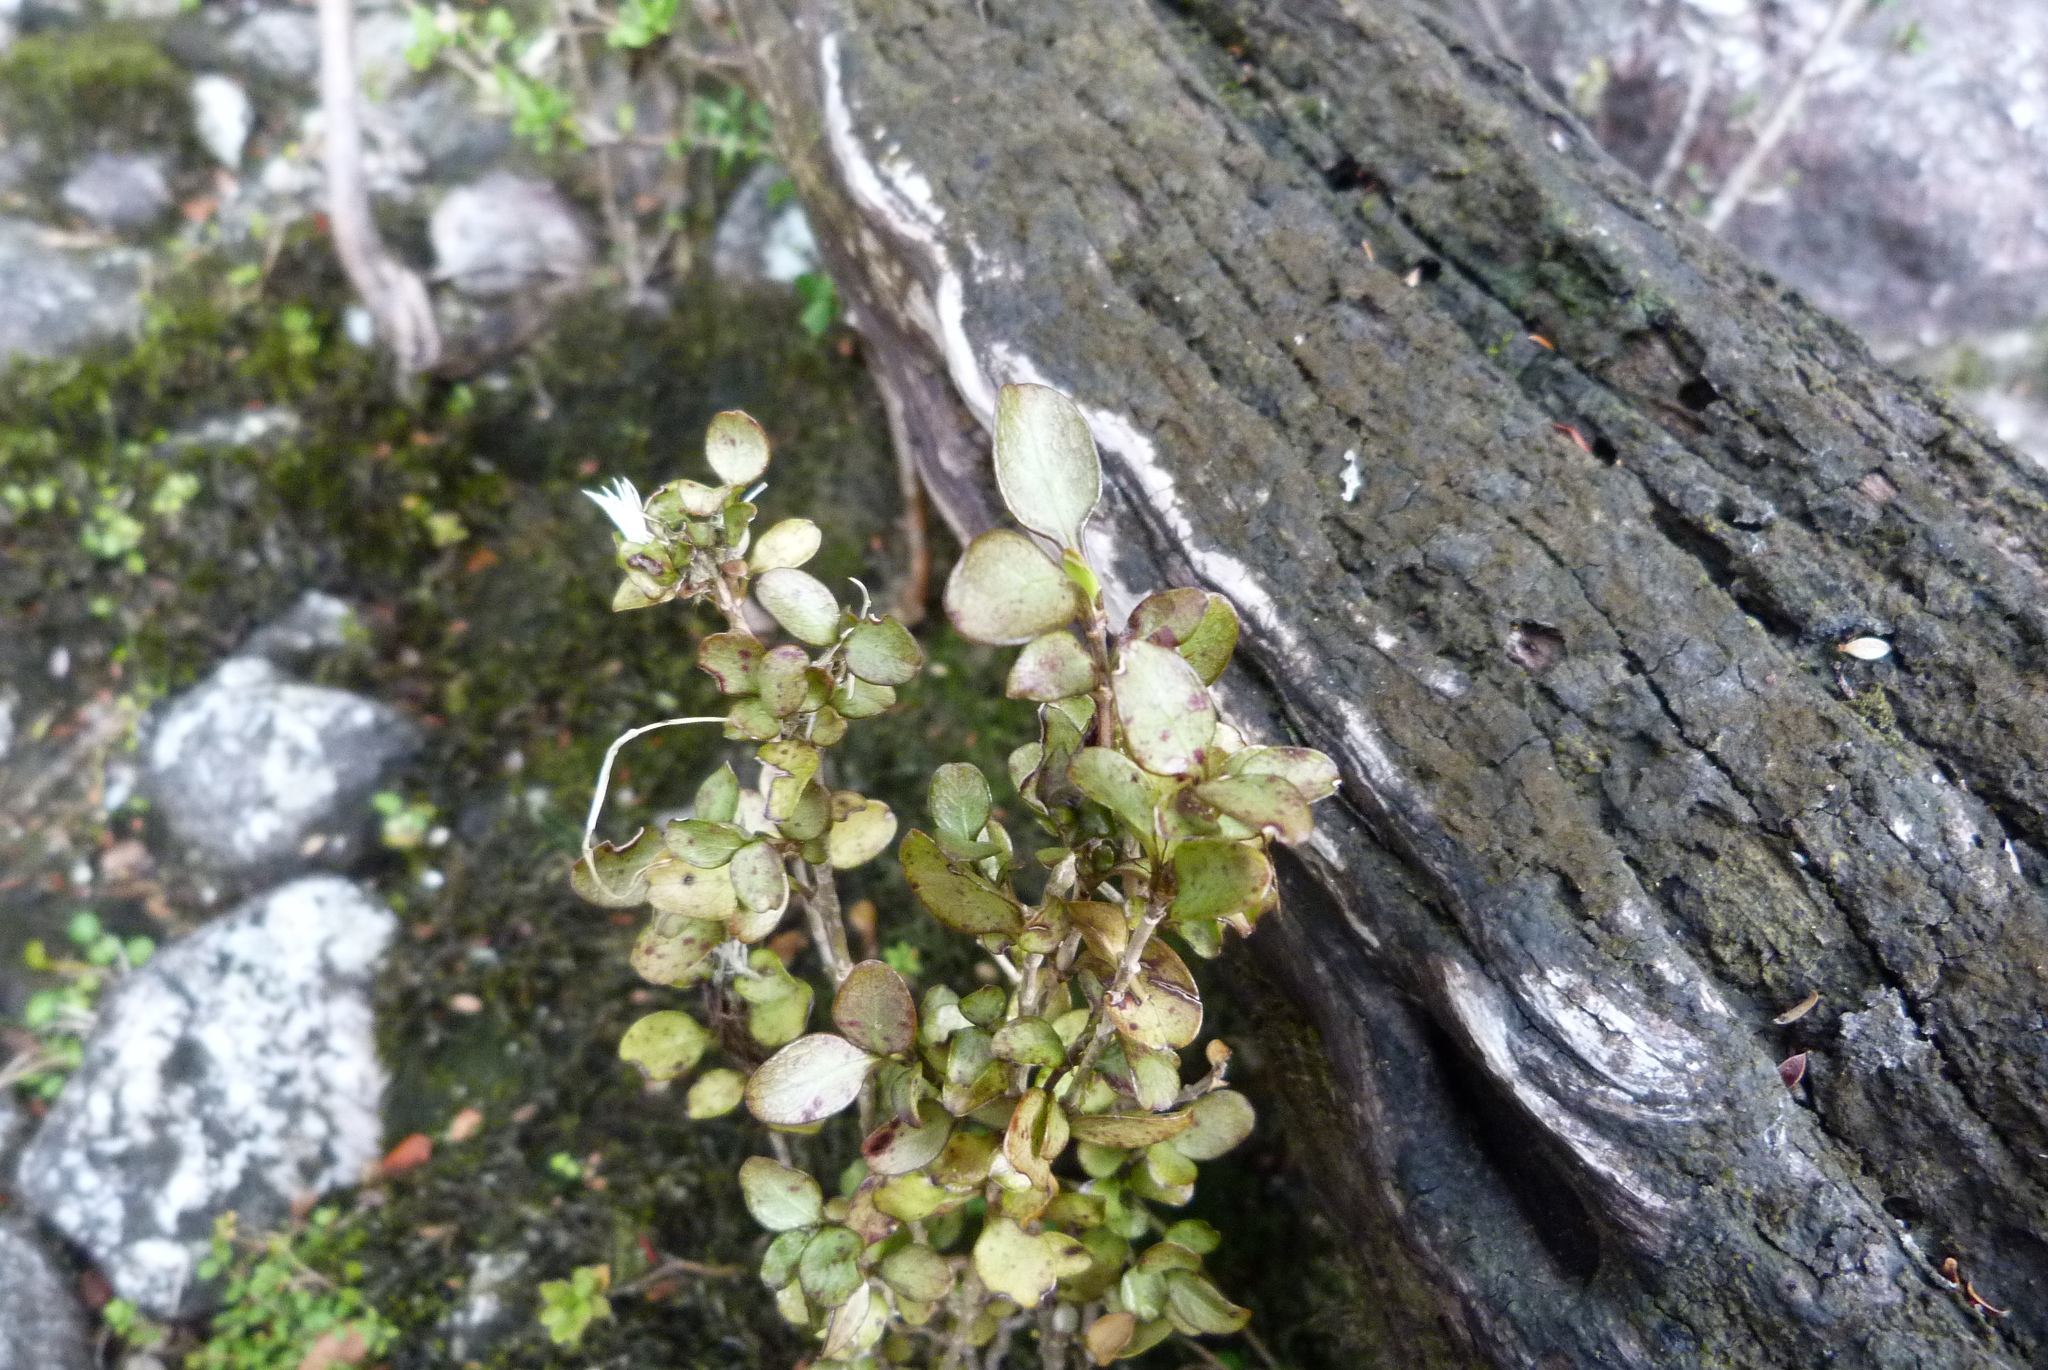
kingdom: Plantae
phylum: Tracheophyta
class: Magnoliopsida
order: Gentianales
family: Rubiaceae
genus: Coprosma
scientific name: Coprosma colensoi
